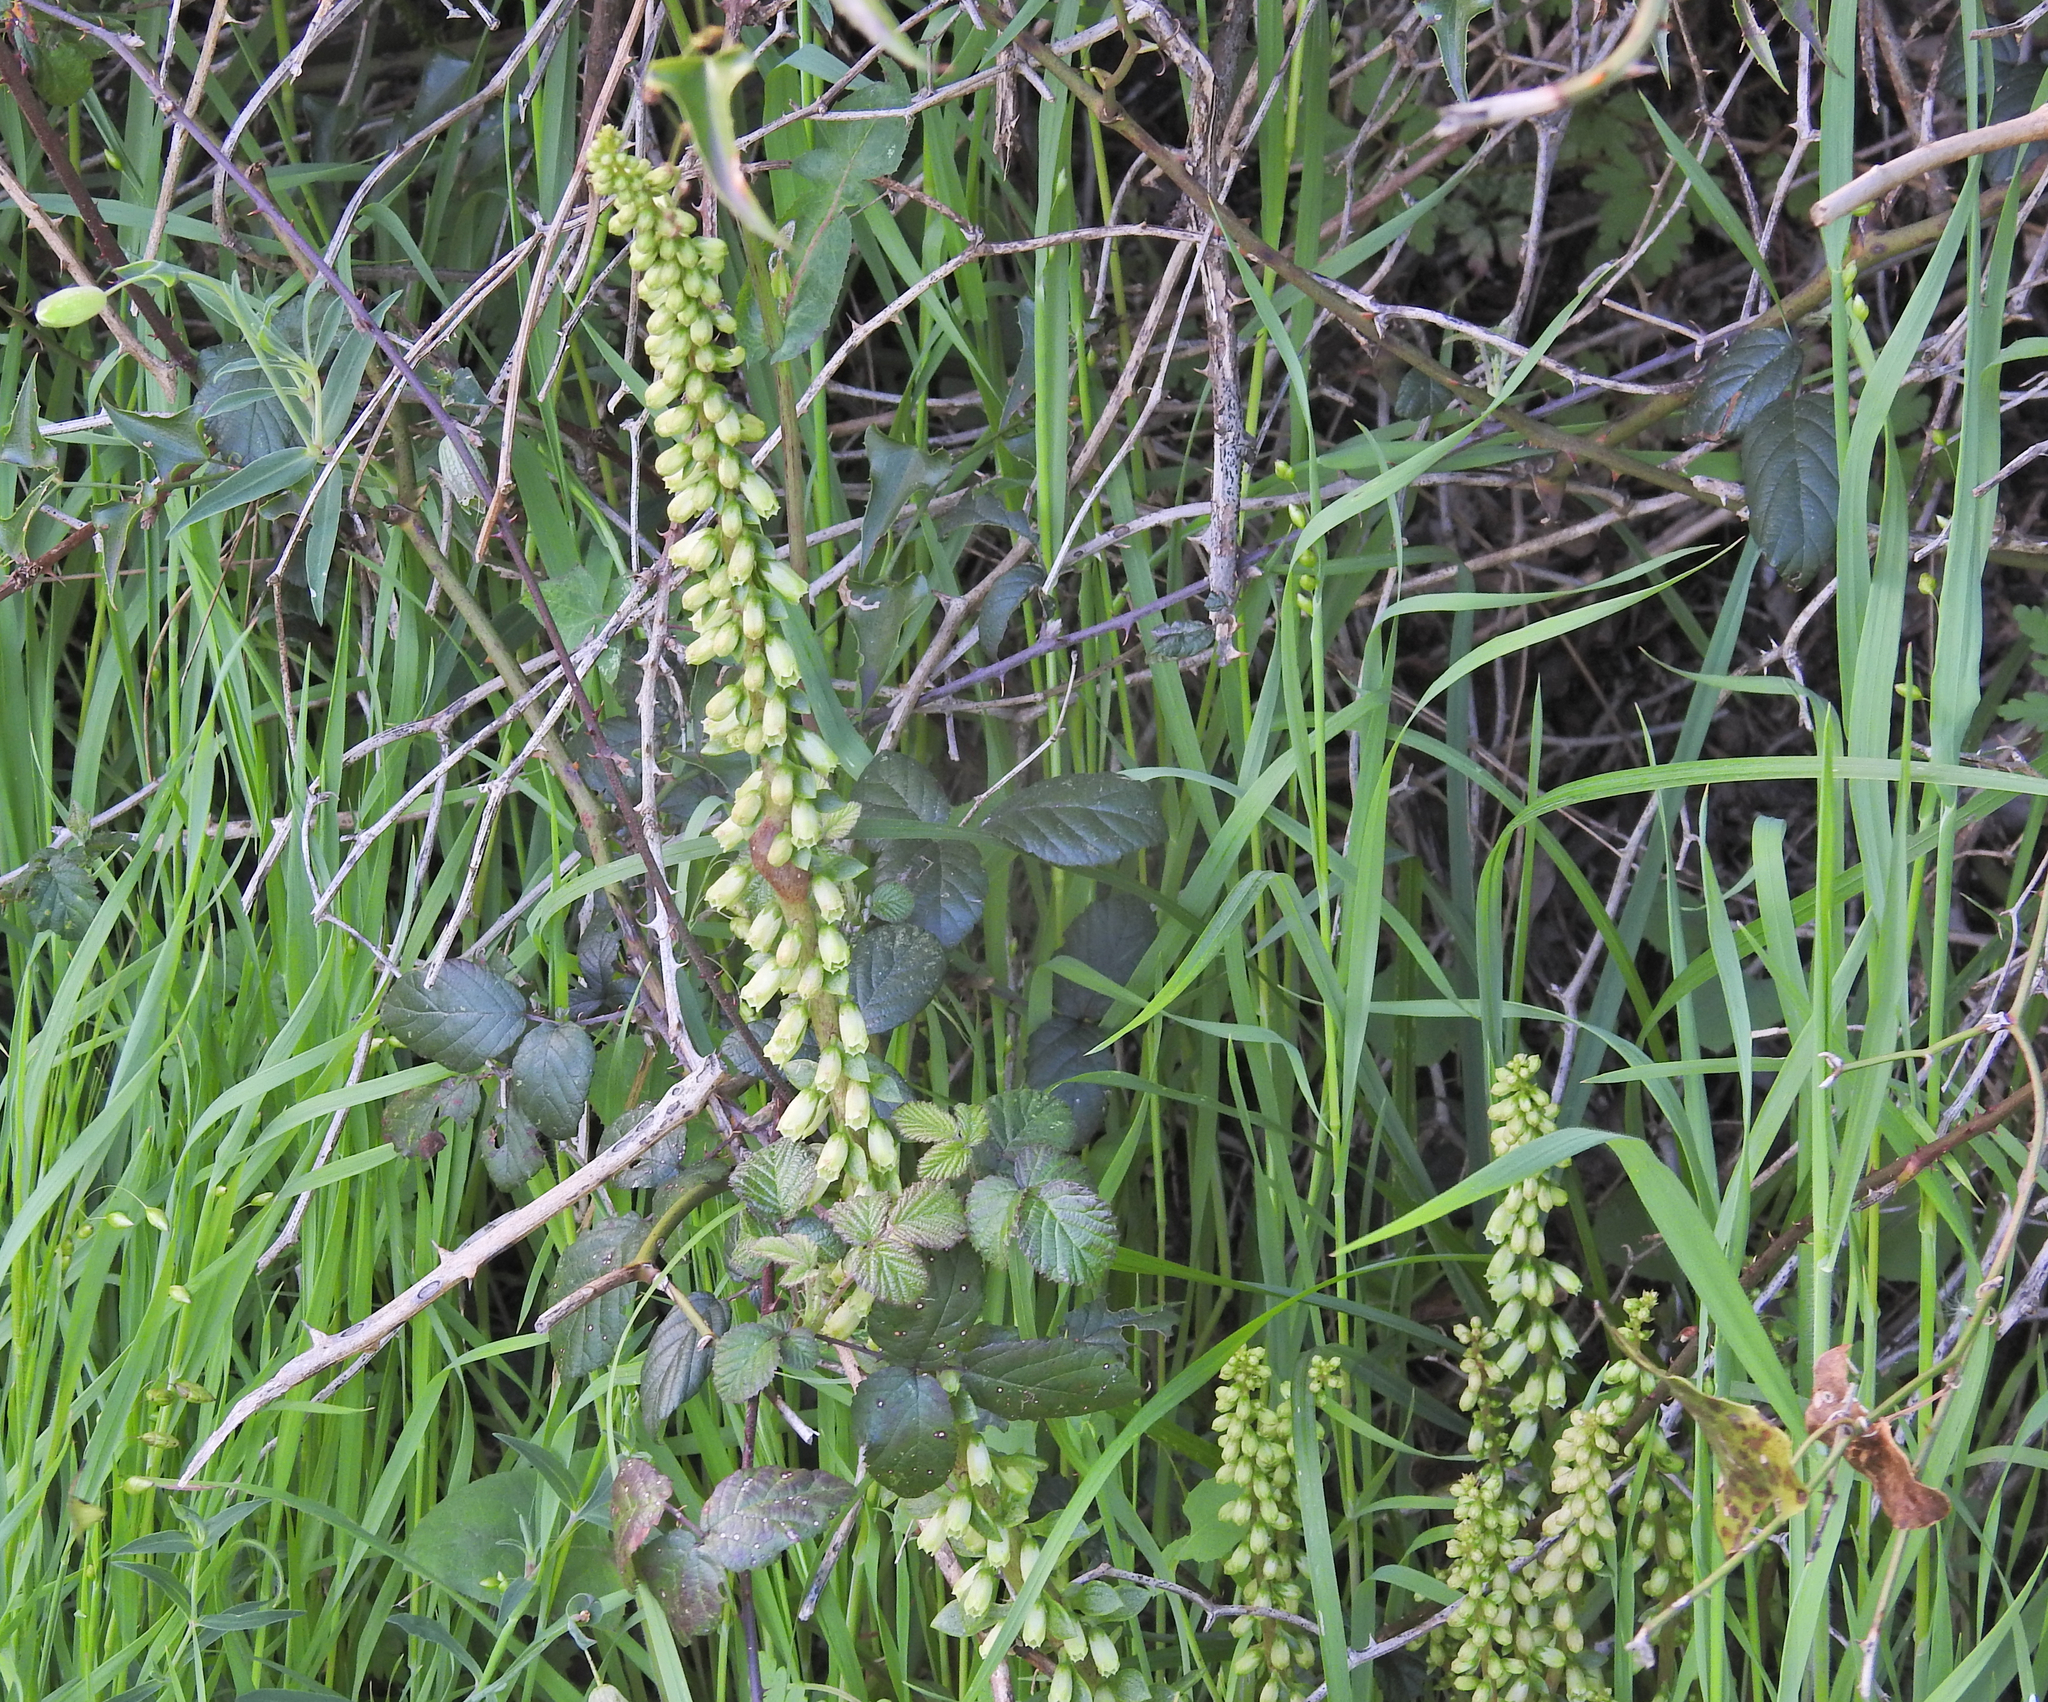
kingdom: Plantae
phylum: Tracheophyta
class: Magnoliopsida
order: Saxifragales
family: Crassulaceae
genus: Umbilicus
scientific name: Umbilicus rupestris
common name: Navelwort
